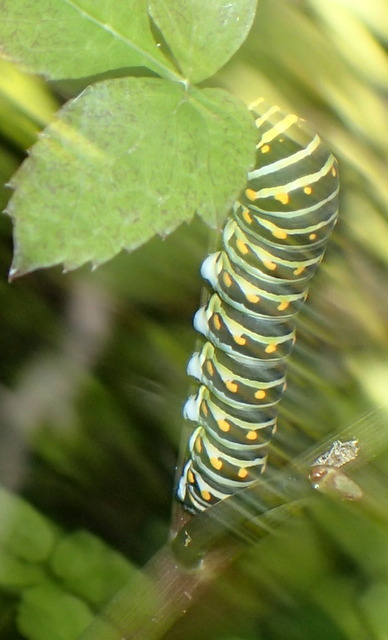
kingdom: Animalia
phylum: Arthropoda
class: Insecta
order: Lepidoptera
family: Papilionidae
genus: Papilio
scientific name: Papilio polyxenes
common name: Black swallowtail
